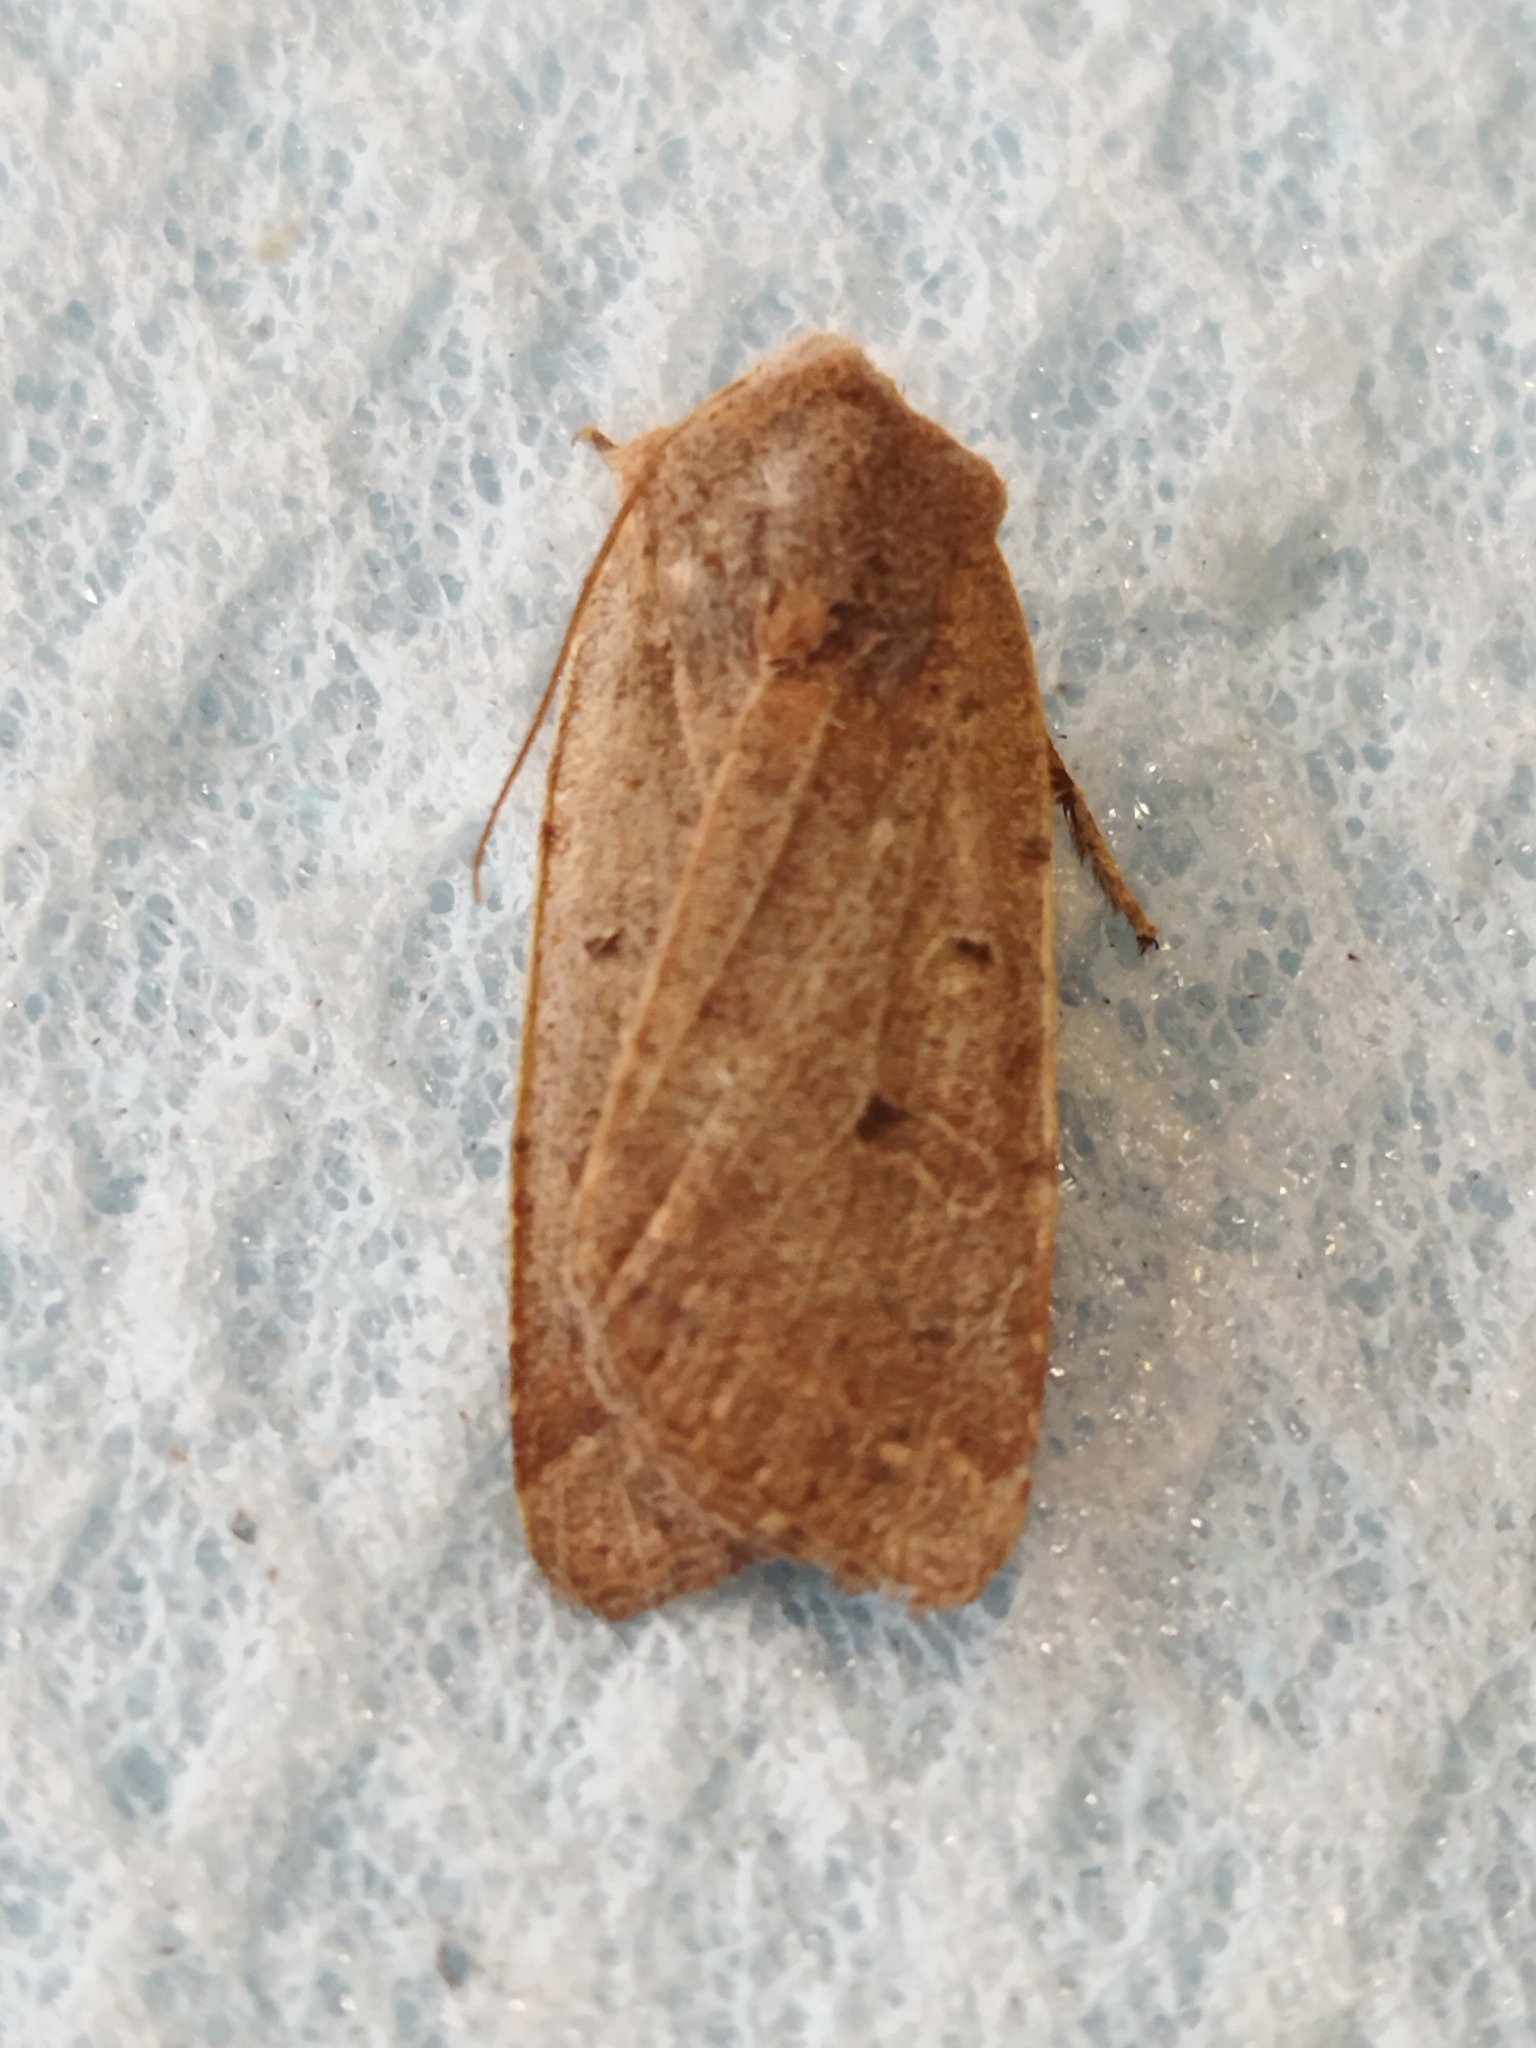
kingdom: Animalia
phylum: Arthropoda
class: Insecta
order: Lepidoptera
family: Noctuidae
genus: Agrochola
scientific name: Agrochola lychnidis
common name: Beaded chestnut
